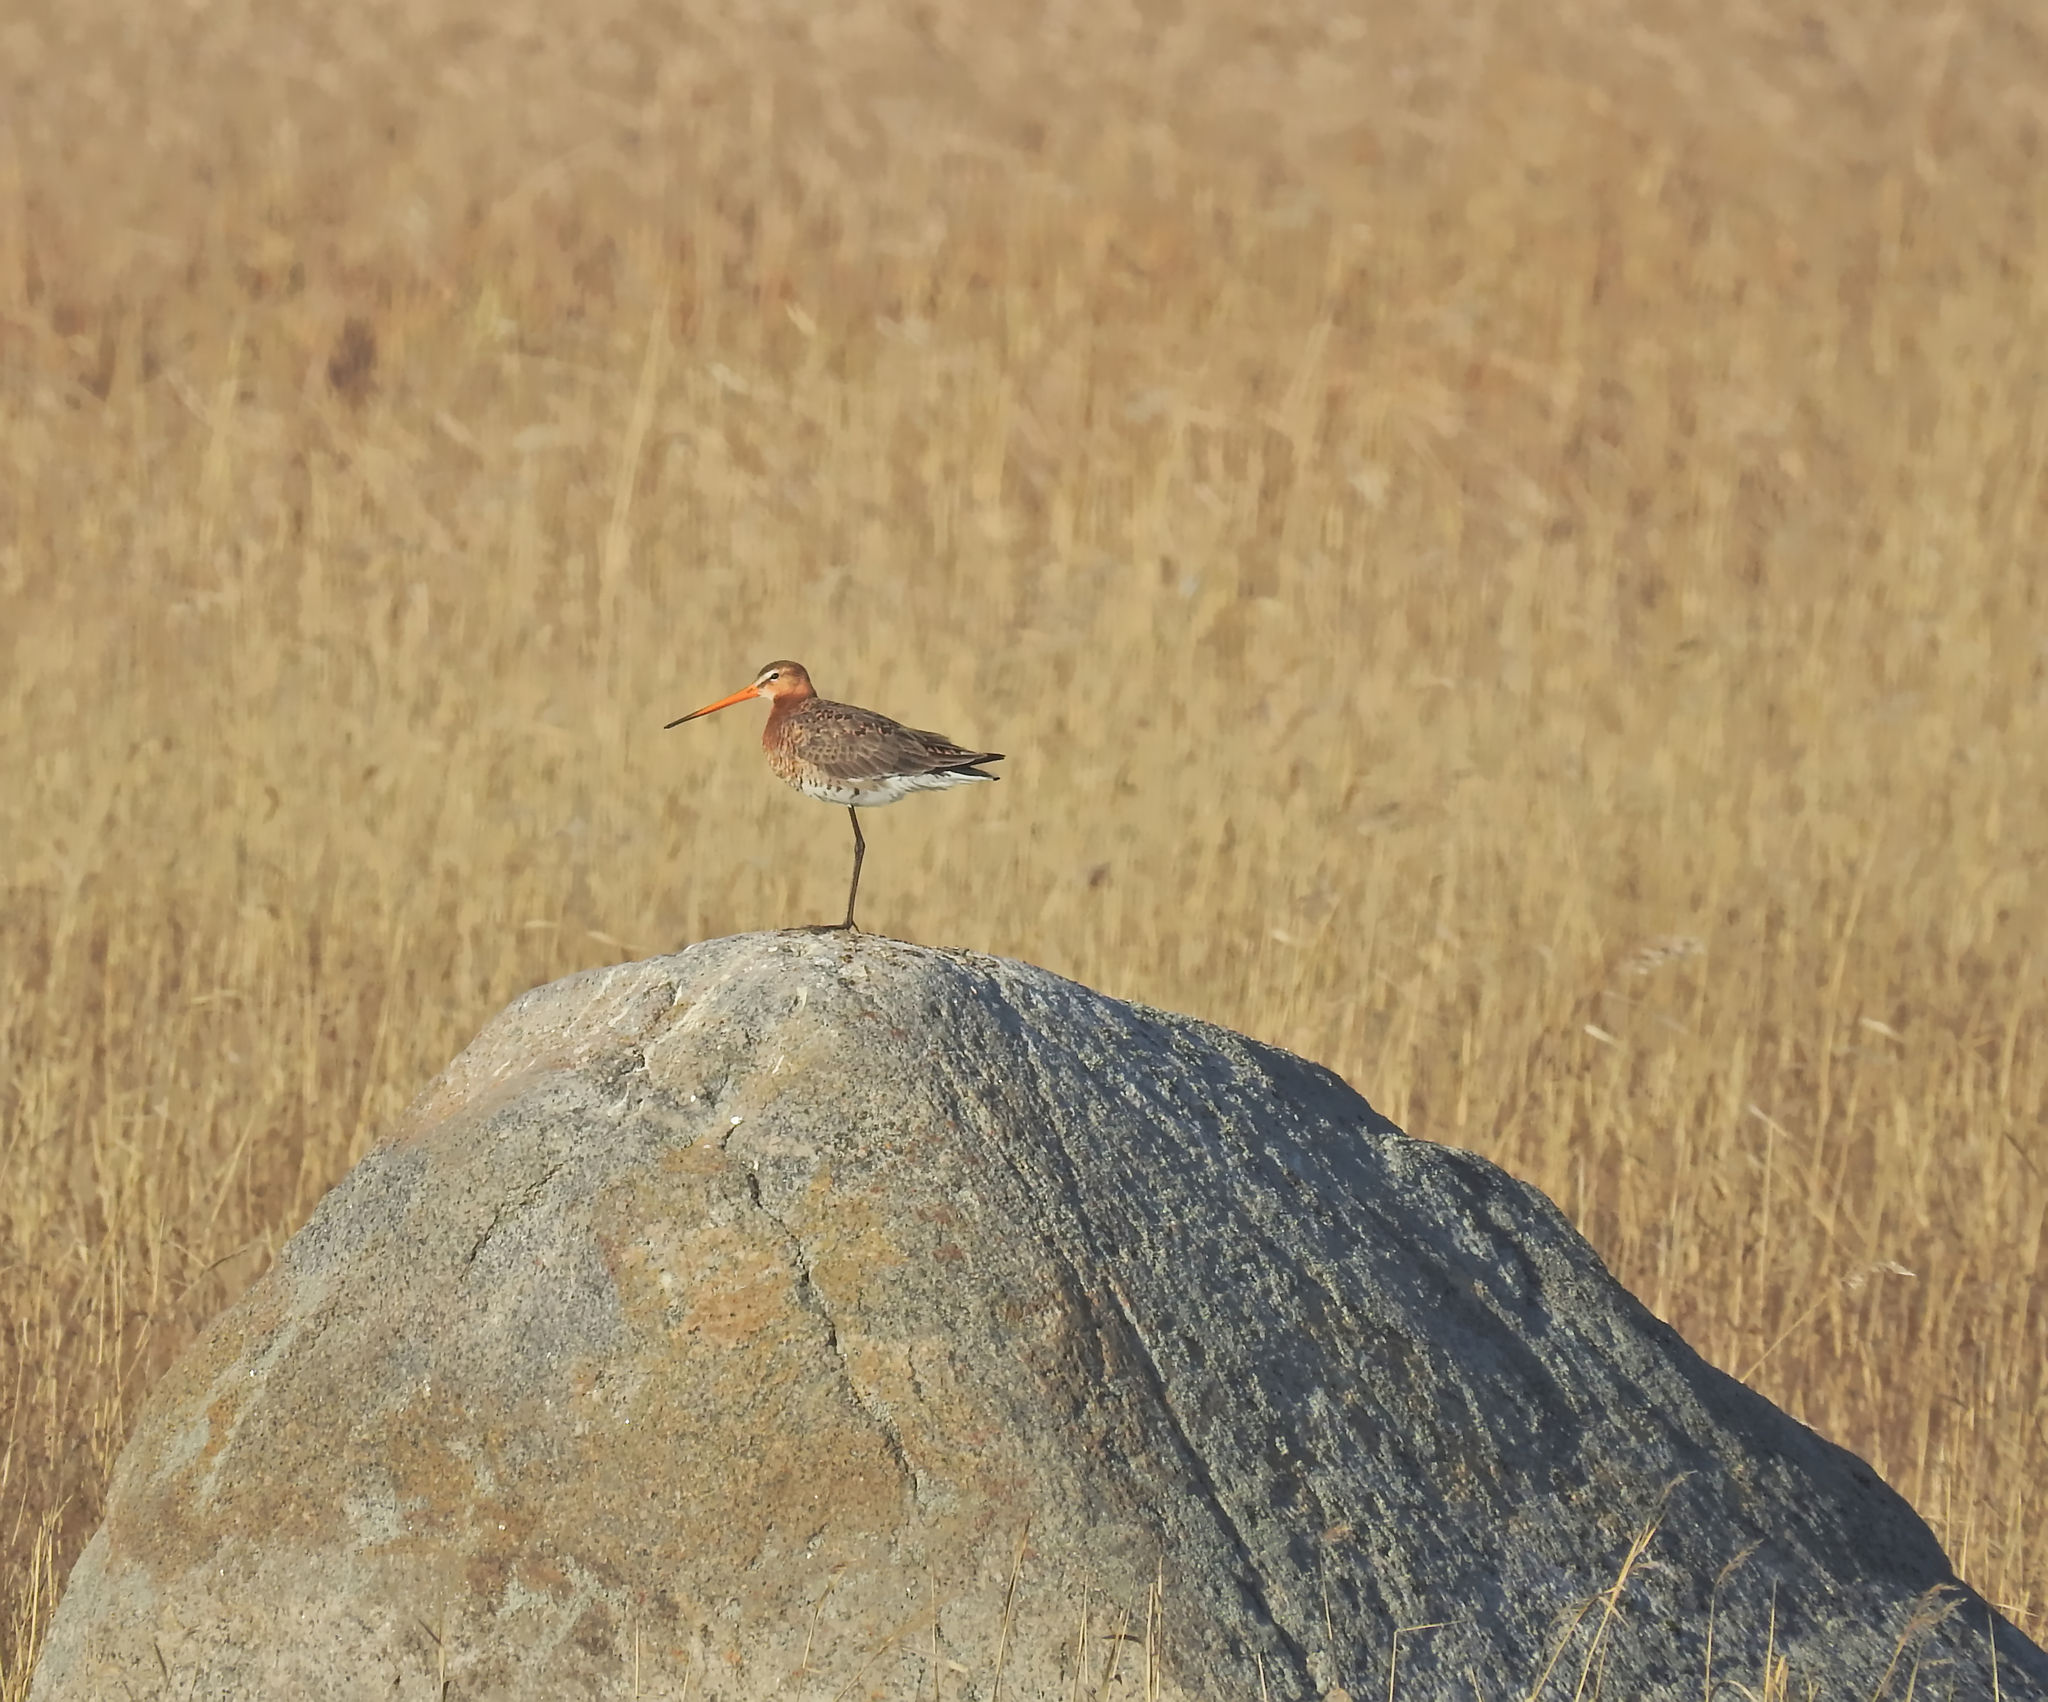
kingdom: Animalia
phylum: Chordata
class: Aves
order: Charadriiformes
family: Scolopacidae
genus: Limosa
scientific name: Limosa limosa
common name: Black-tailed godwit
